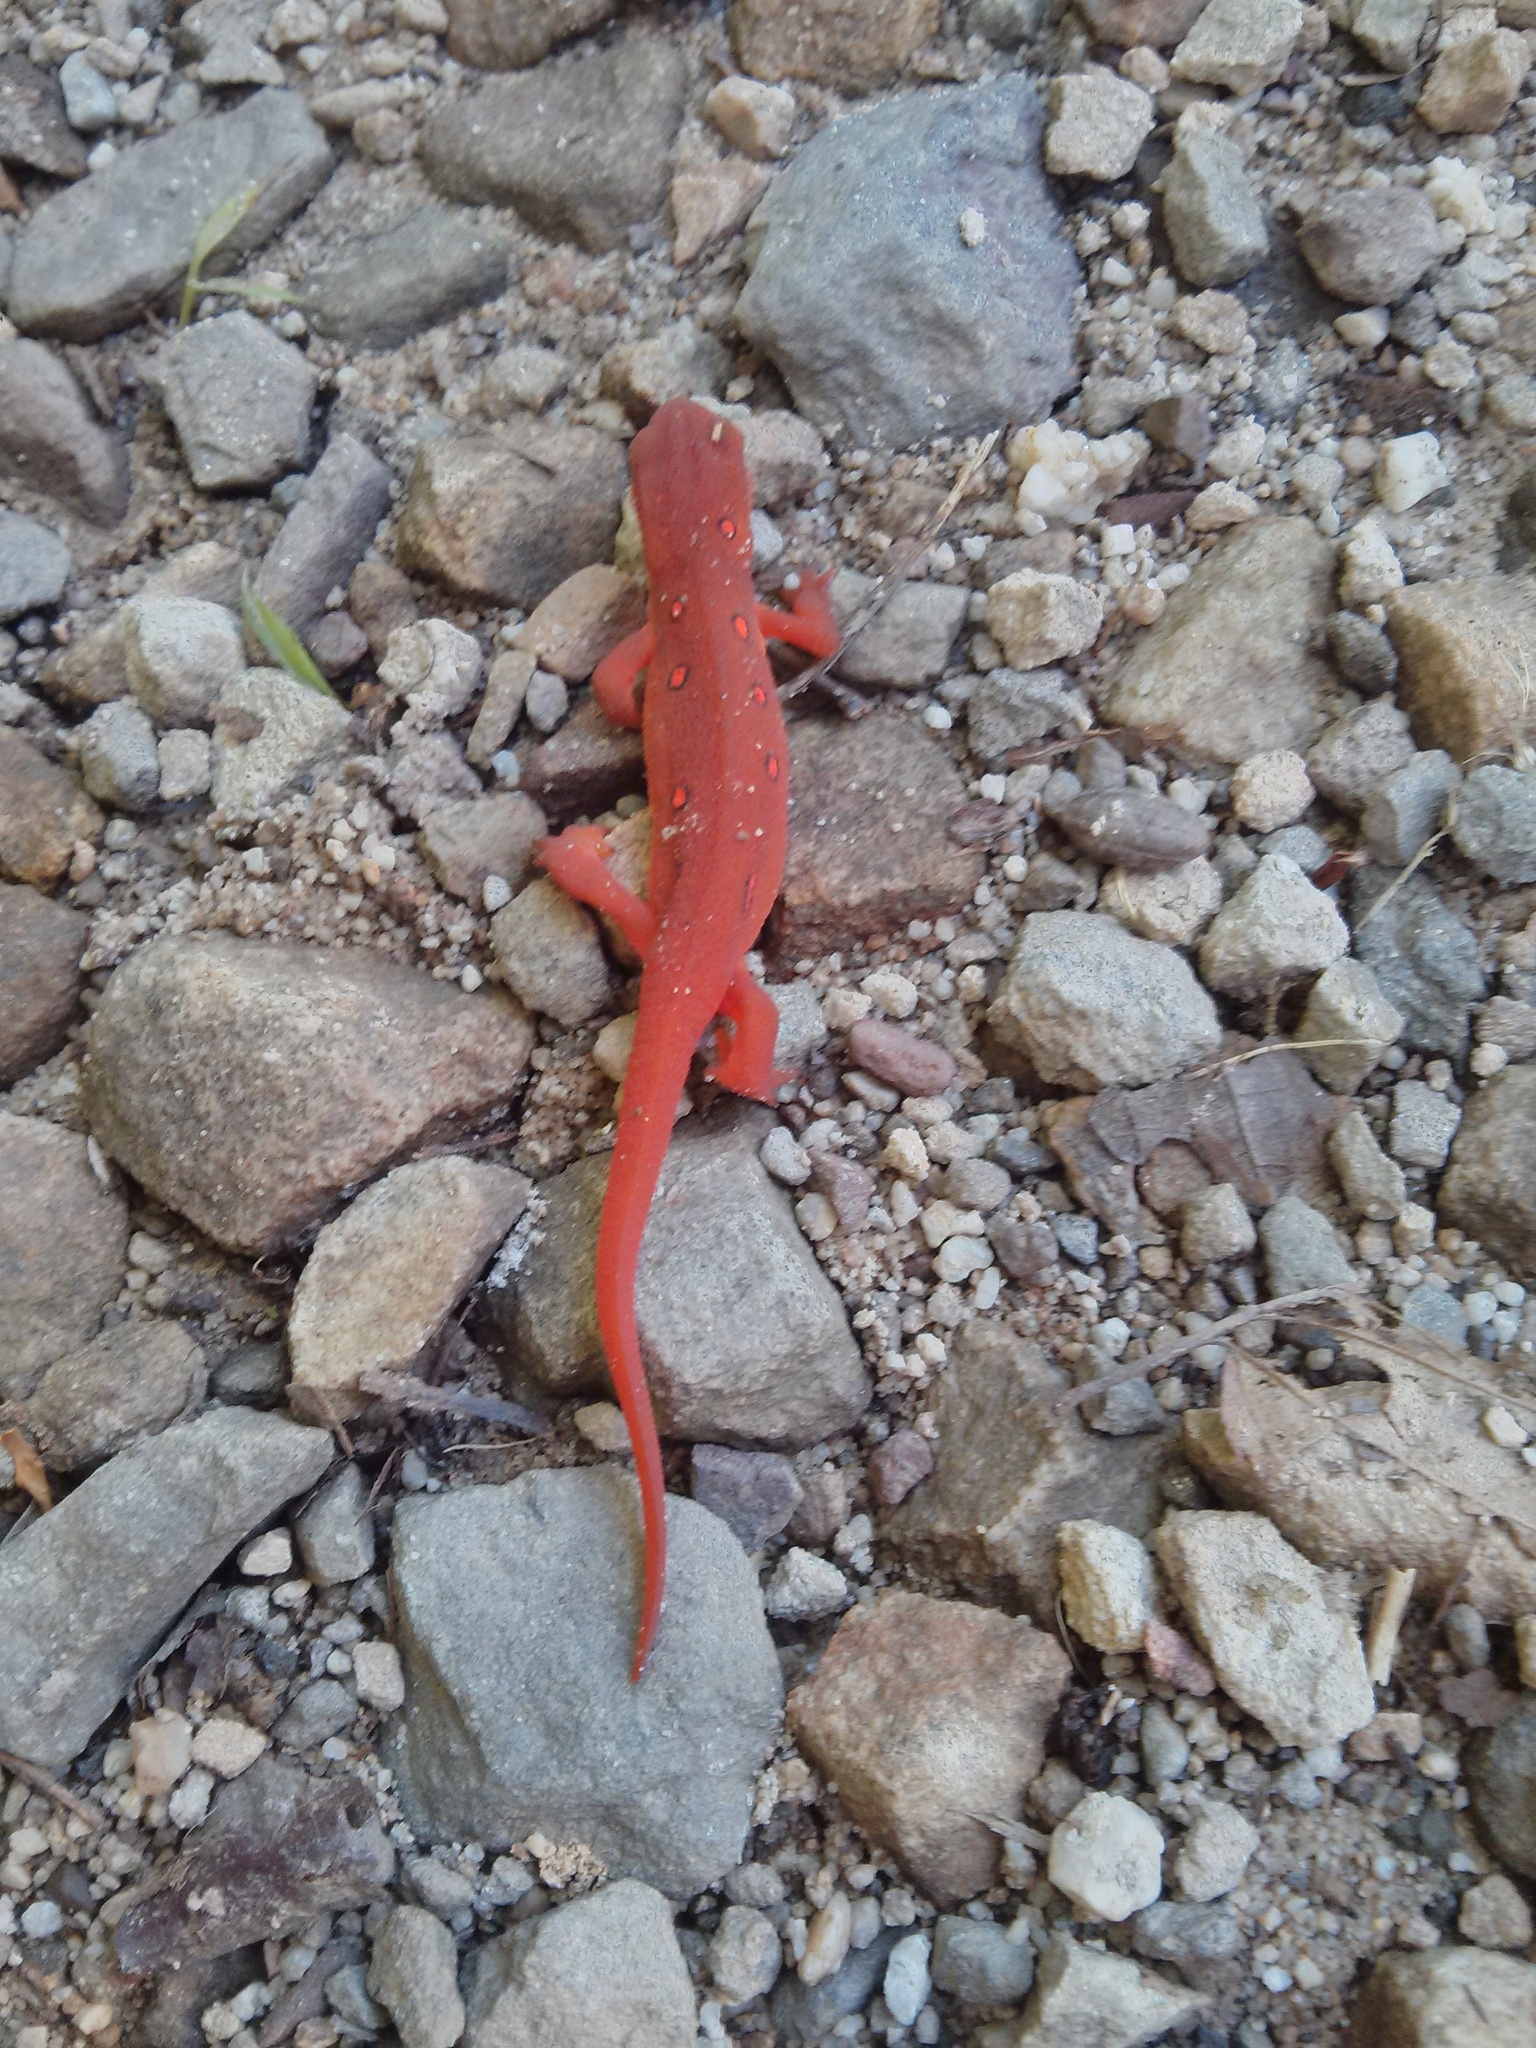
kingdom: Animalia
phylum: Chordata
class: Amphibia
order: Caudata
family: Salamandridae
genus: Notophthalmus
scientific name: Notophthalmus viridescens
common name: Eastern newt
